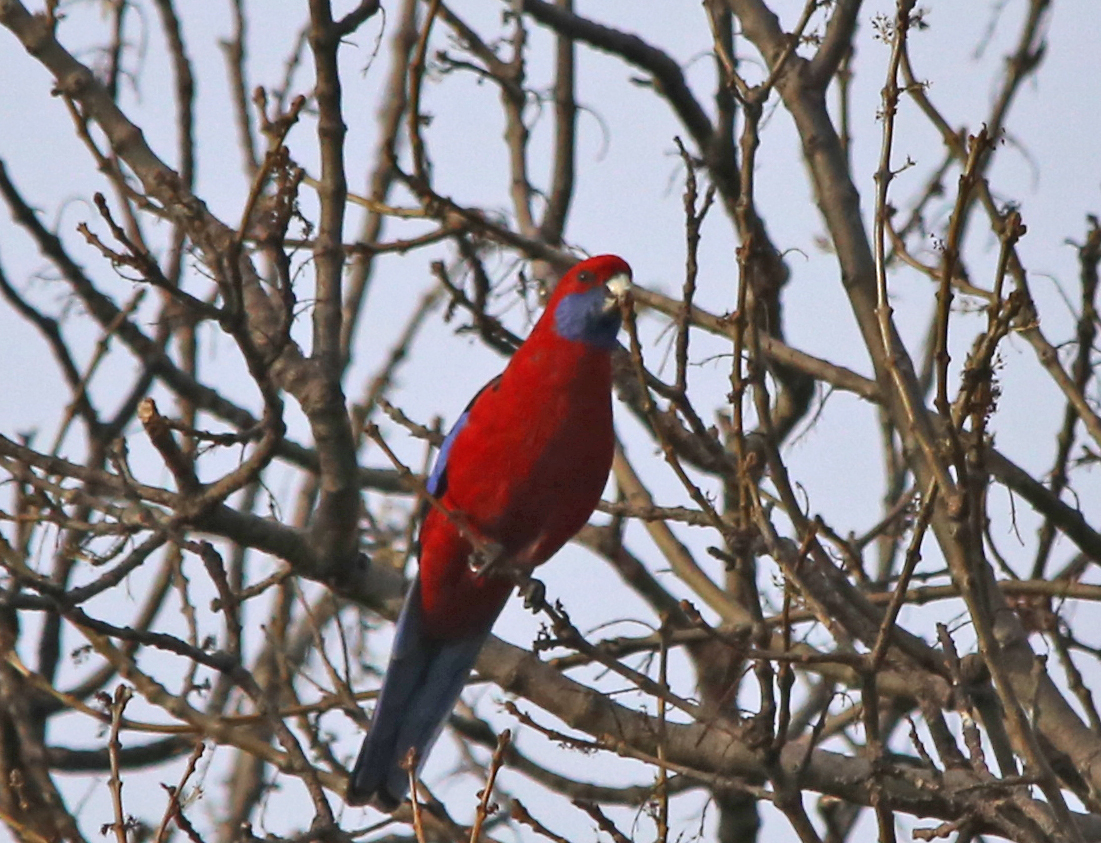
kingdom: Animalia
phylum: Chordata
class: Aves
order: Psittaciformes
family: Psittacidae
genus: Platycercus
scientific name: Platycercus elegans
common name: Crimson rosella
